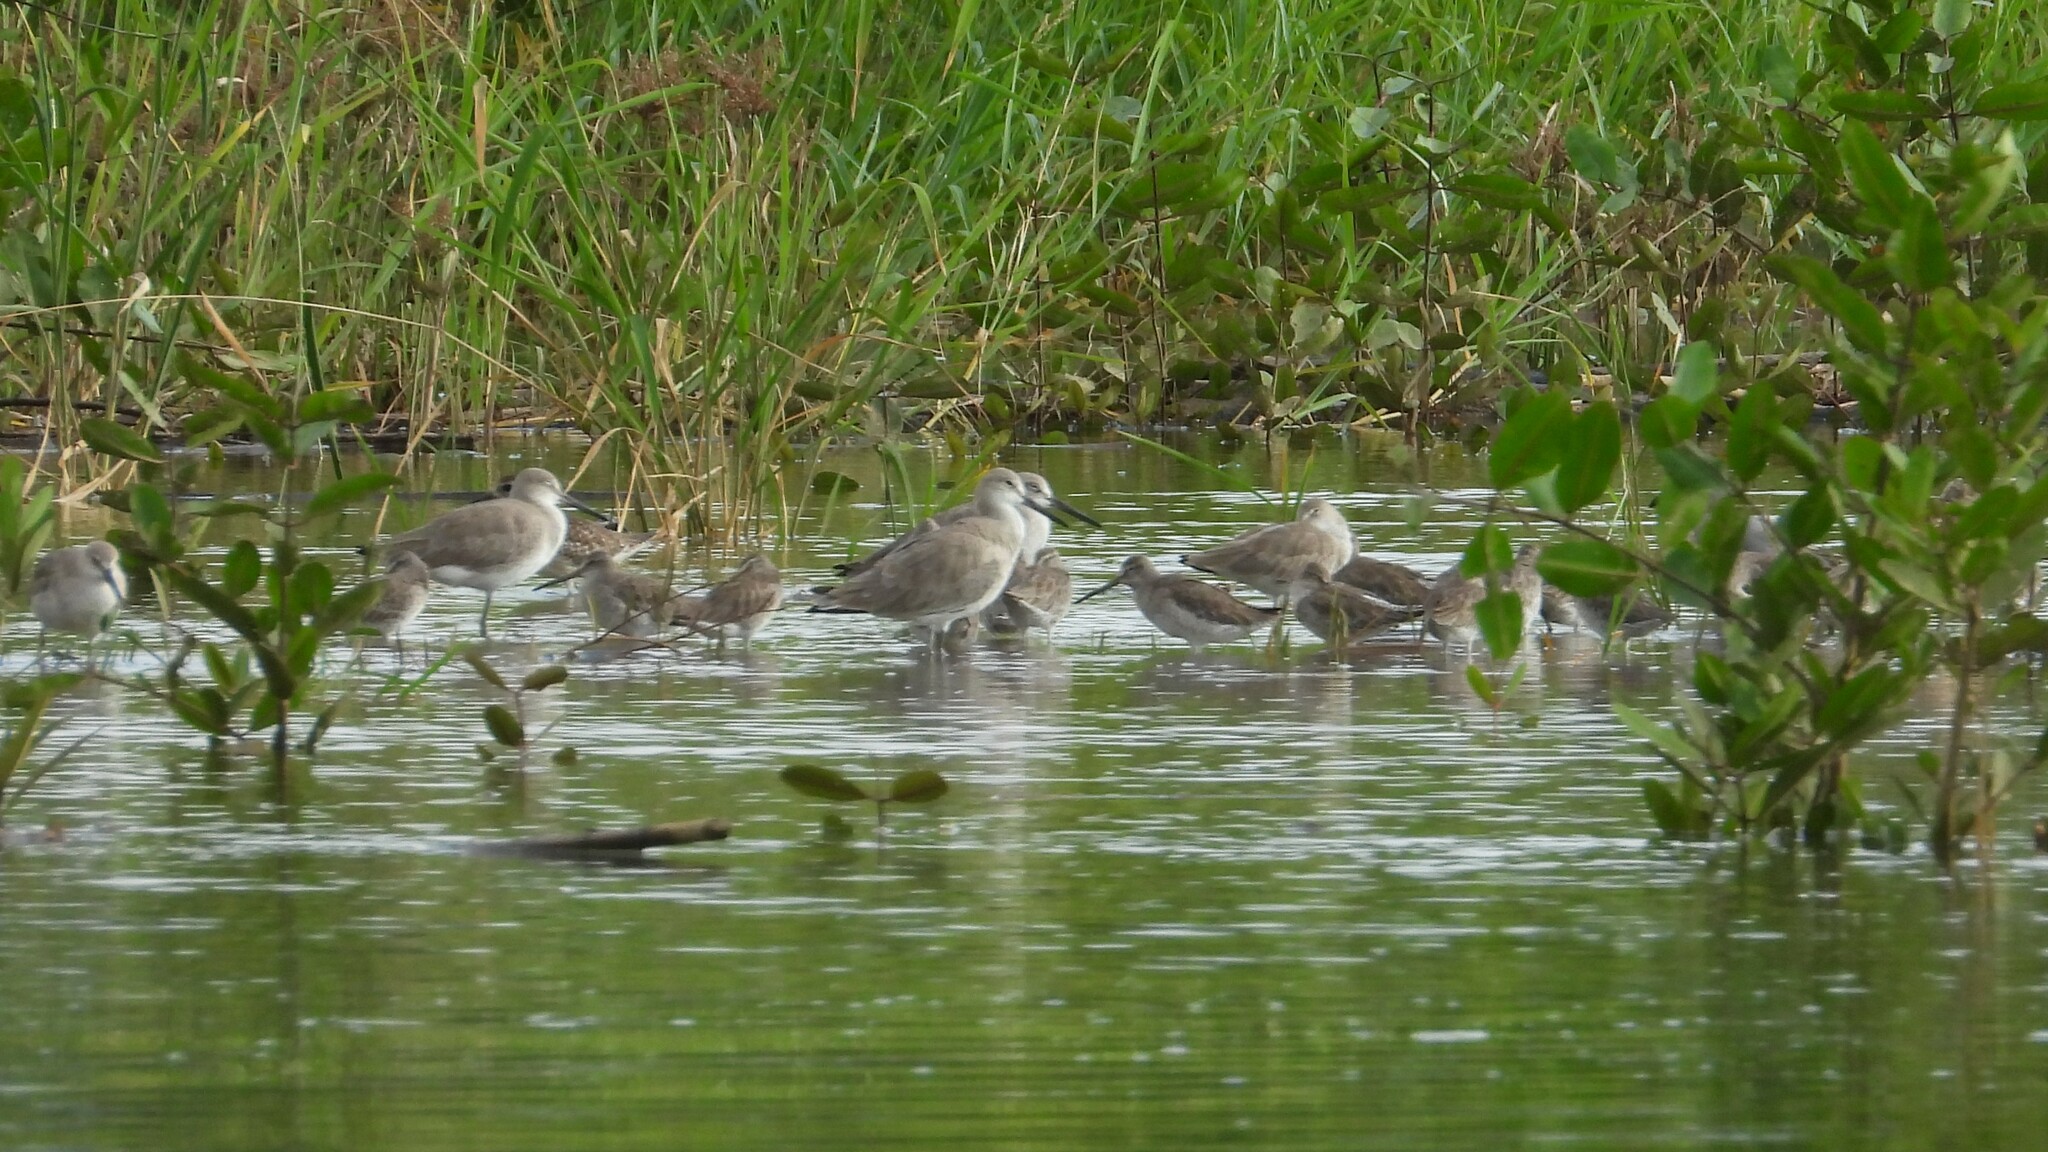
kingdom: Animalia
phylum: Chordata
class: Aves
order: Charadriiformes
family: Scolopacidae
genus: Tringa
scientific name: Tringa semipalmata
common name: Willet
